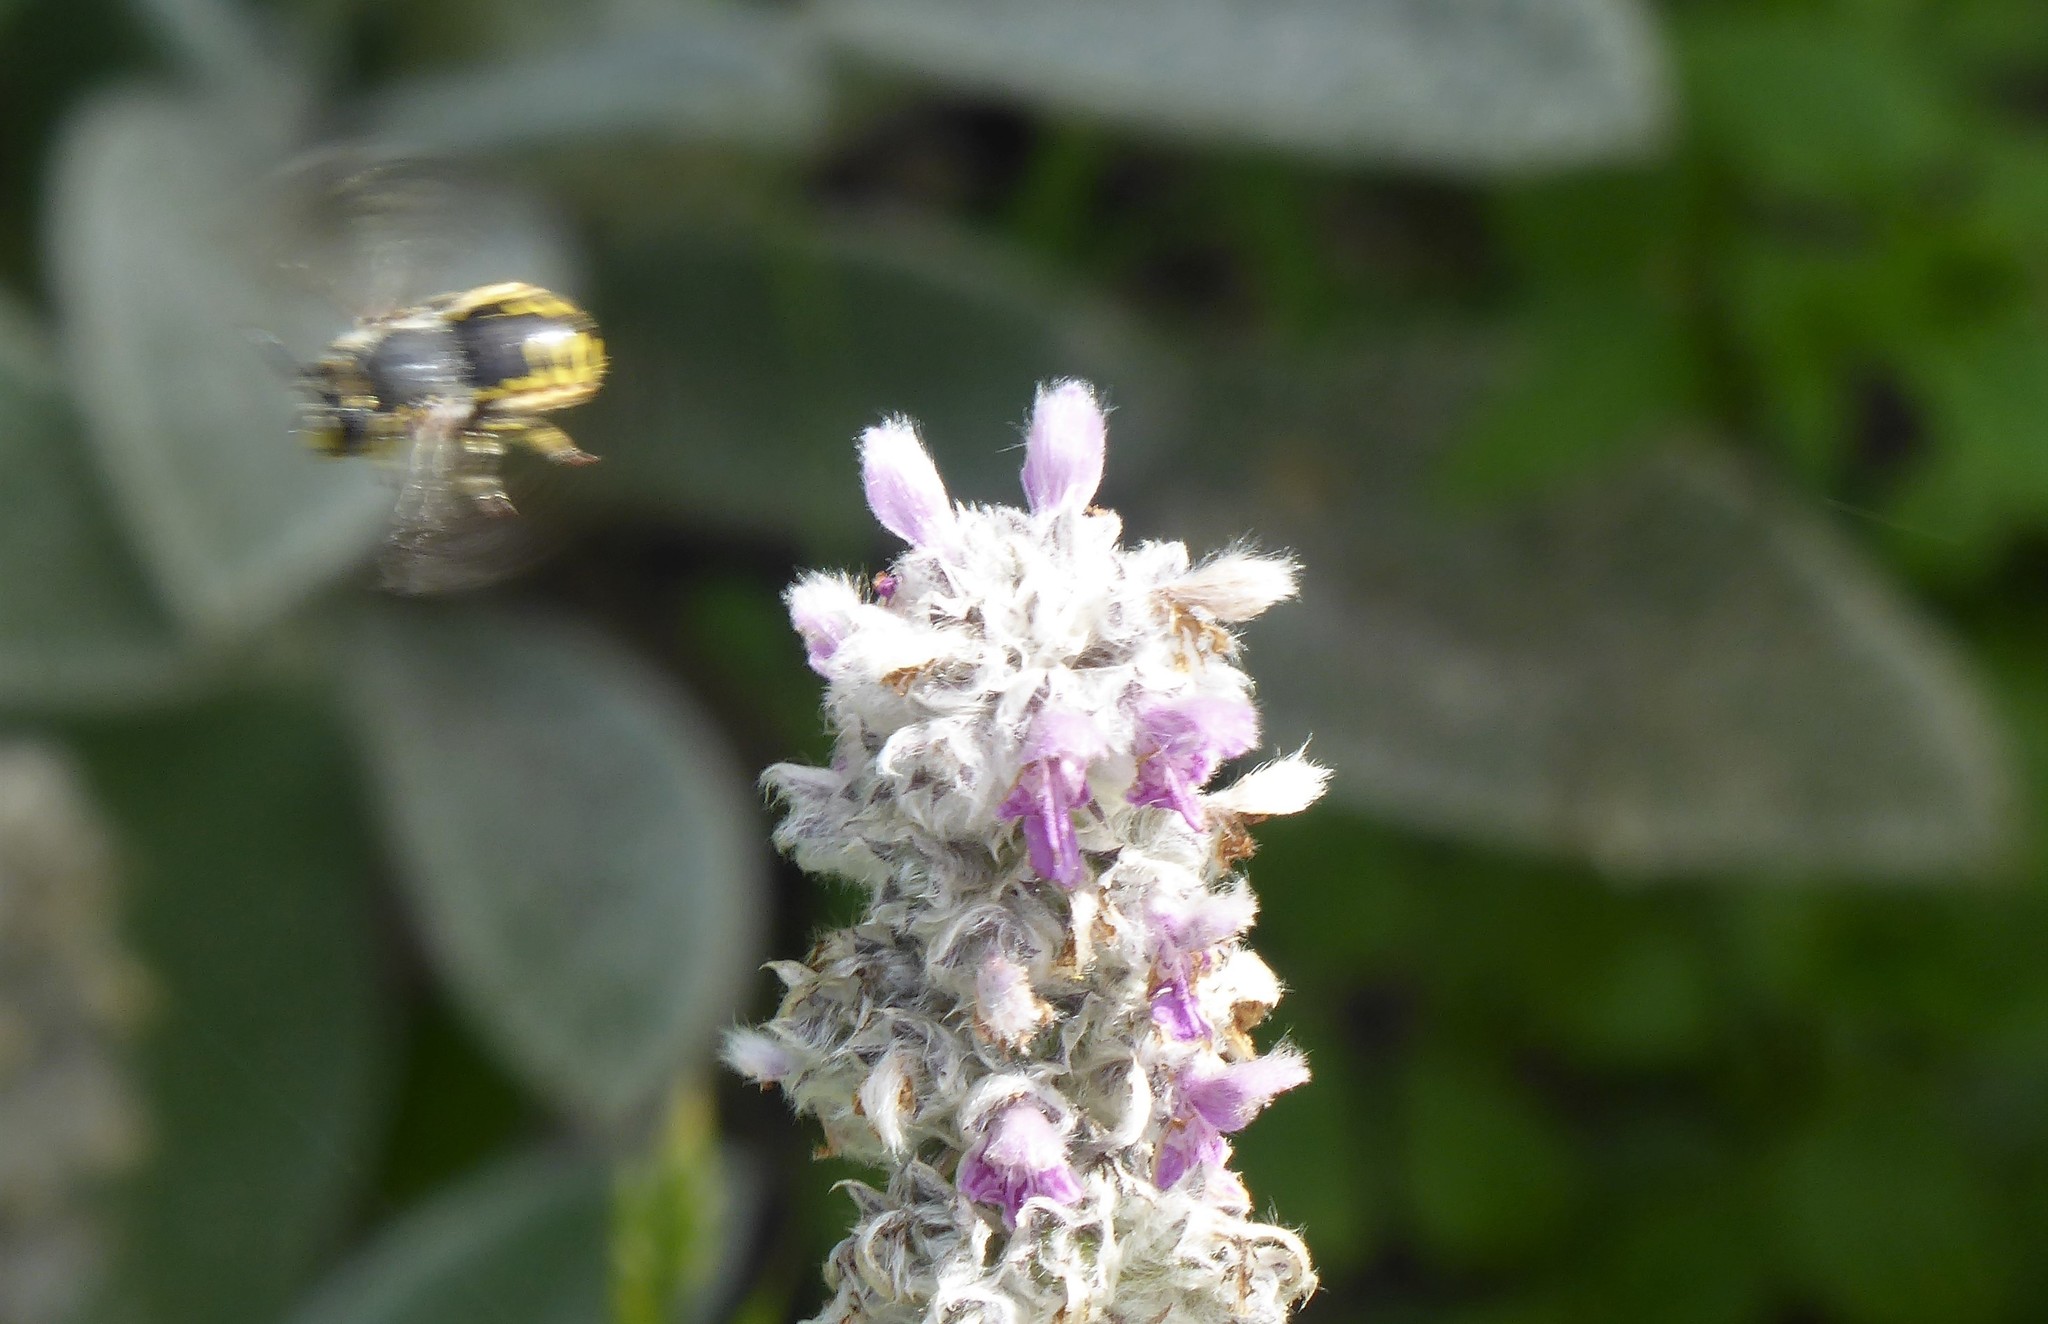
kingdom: Animalia
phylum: Arthropoda
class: Insecta
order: Hymenoptera
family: Megachilidae
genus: Anthidium
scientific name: Anthidium manicatum
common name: Wool carder bee
